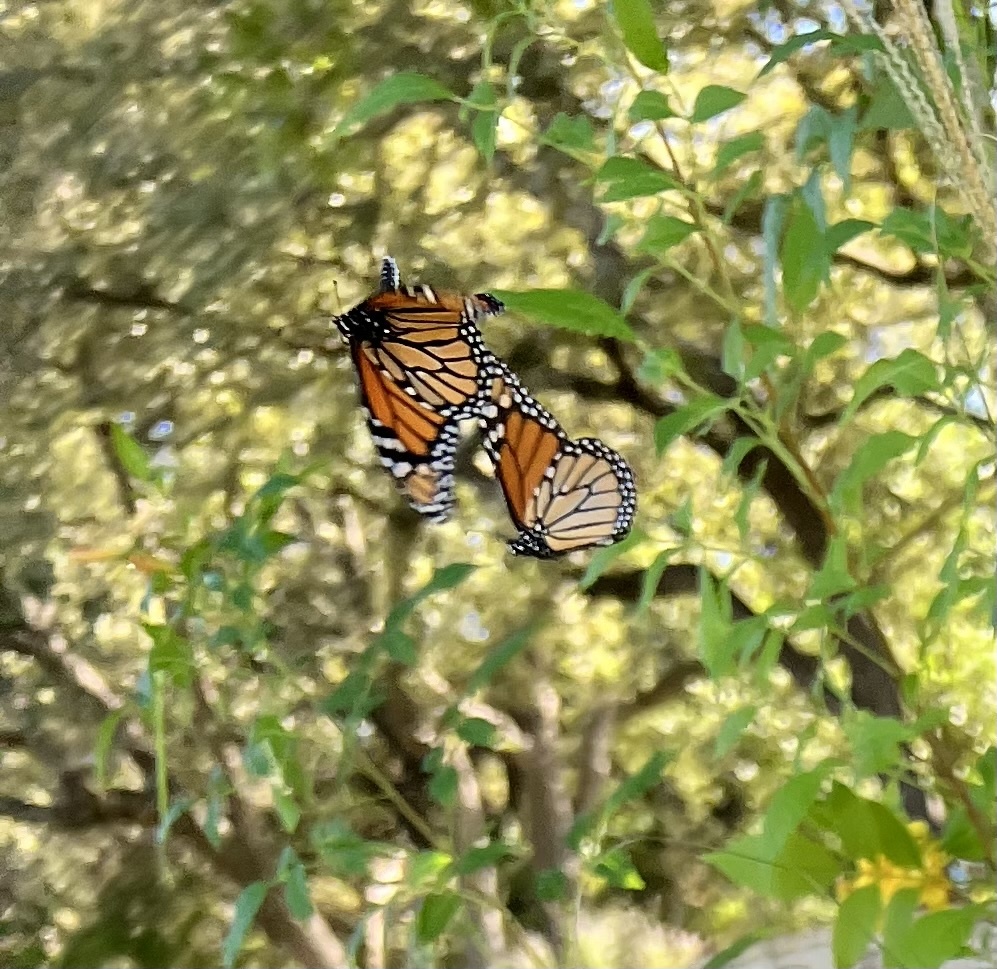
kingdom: Animalia
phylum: Arthropoda
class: Insecta
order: Lepidoptera
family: Nymphalidae
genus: Danaus
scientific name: Danaus plexippus
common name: Monarch
